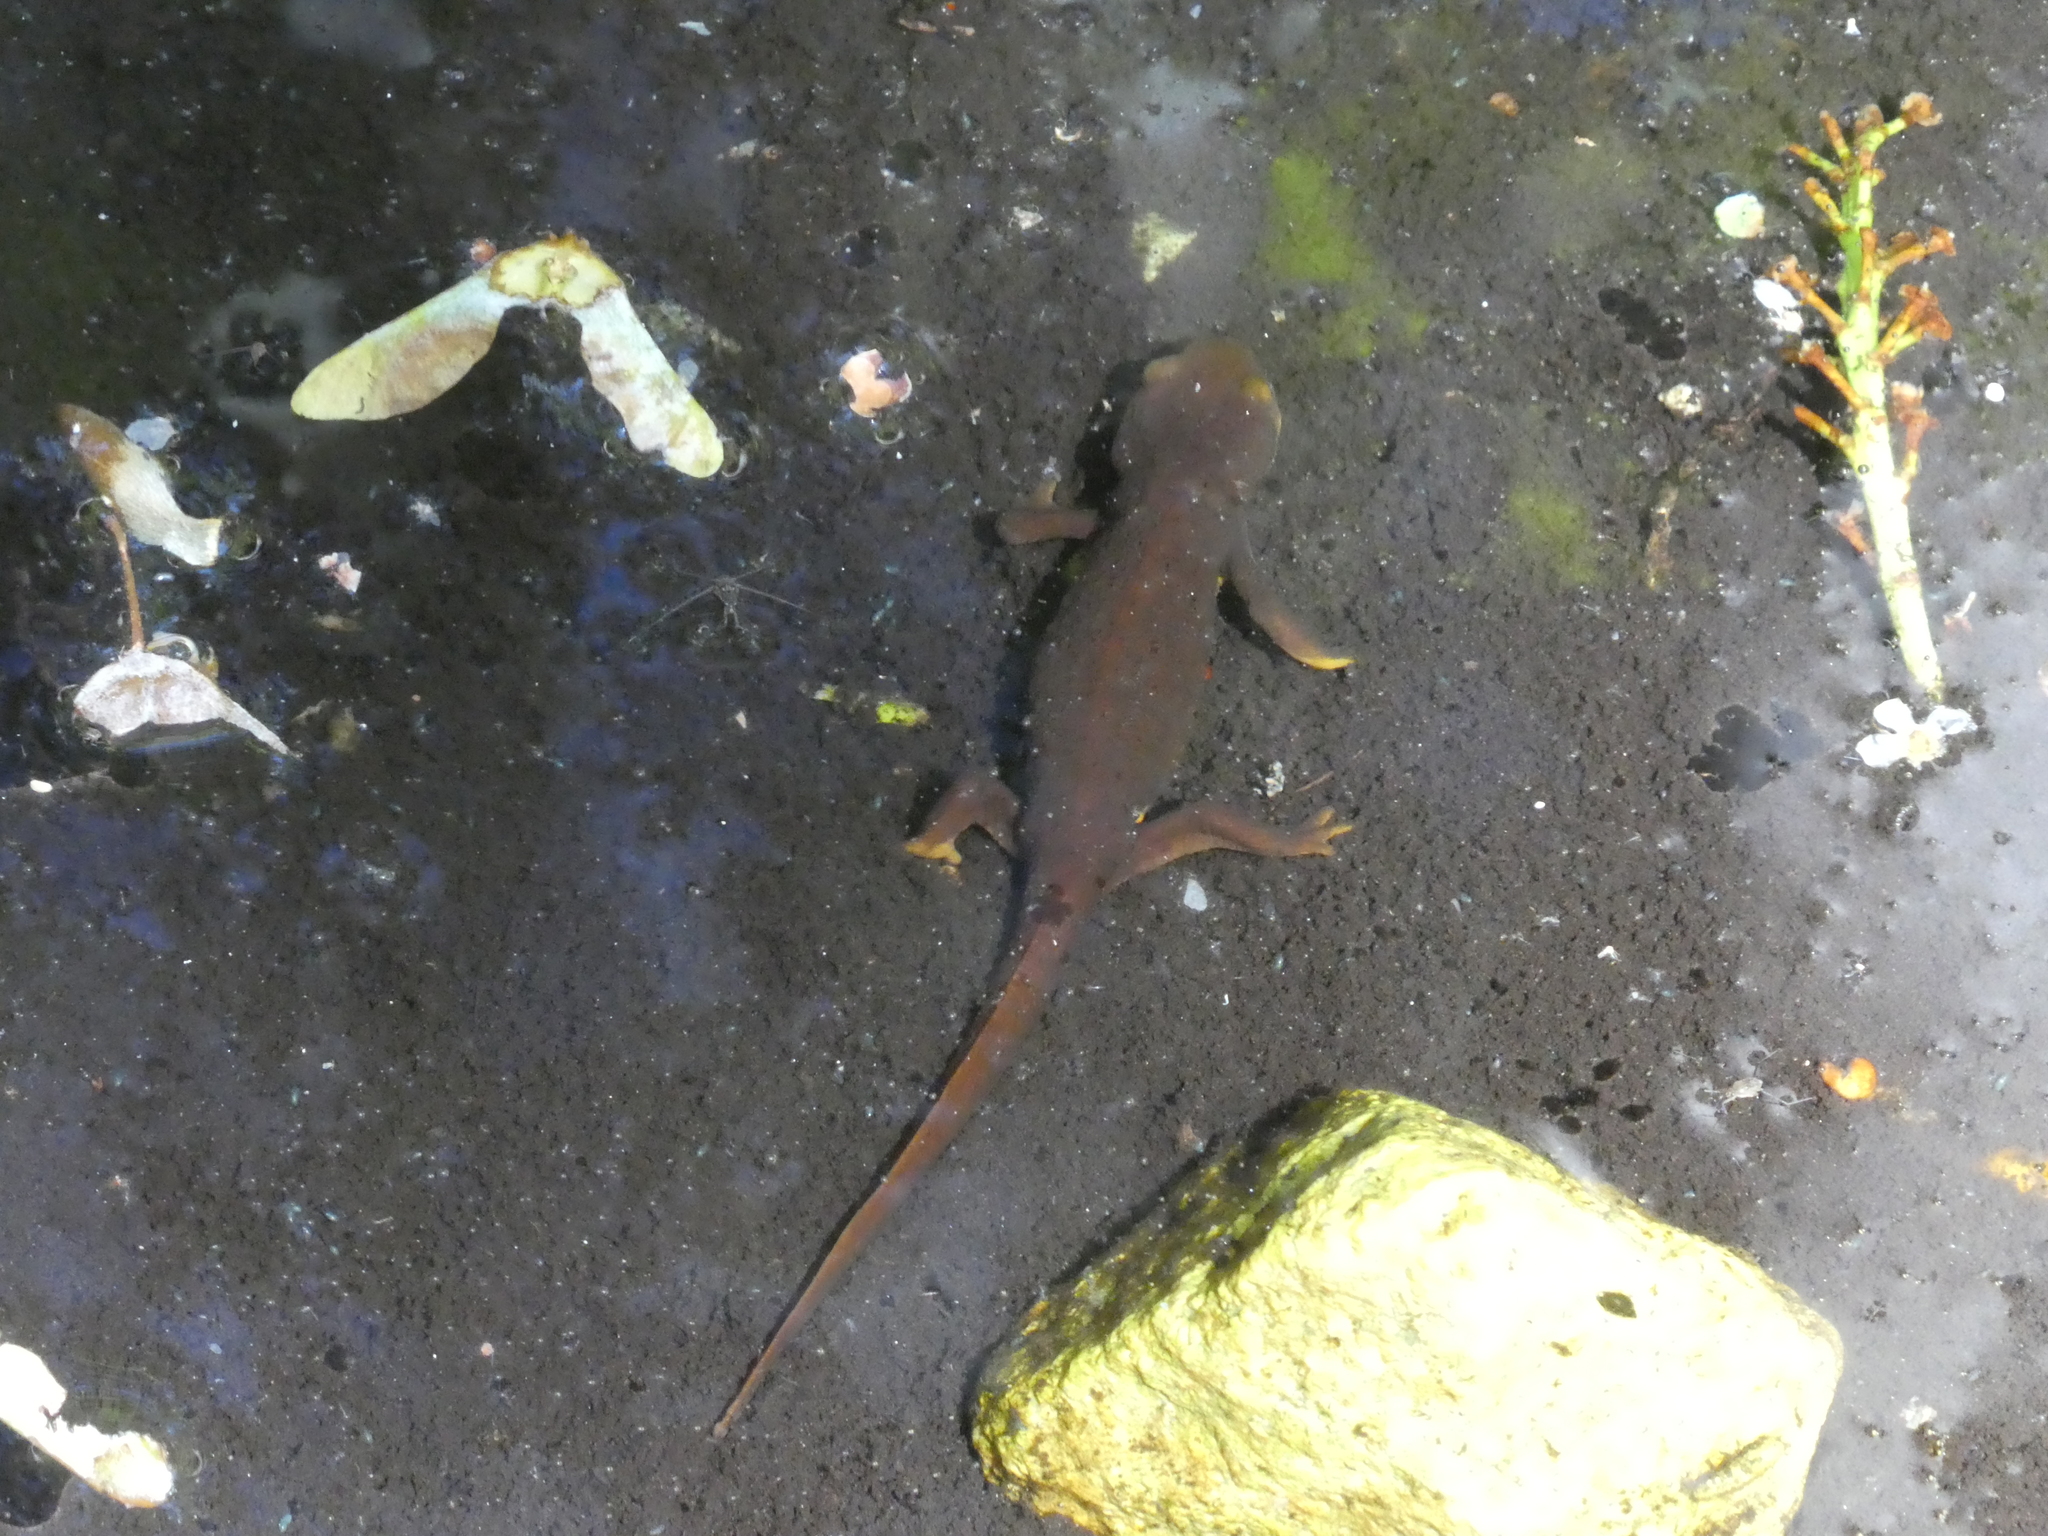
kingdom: Animalia
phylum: Chordata
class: Amphibia
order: Caudata
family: Salamandridae
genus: Taricha
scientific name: Taricha torosa
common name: California newt
